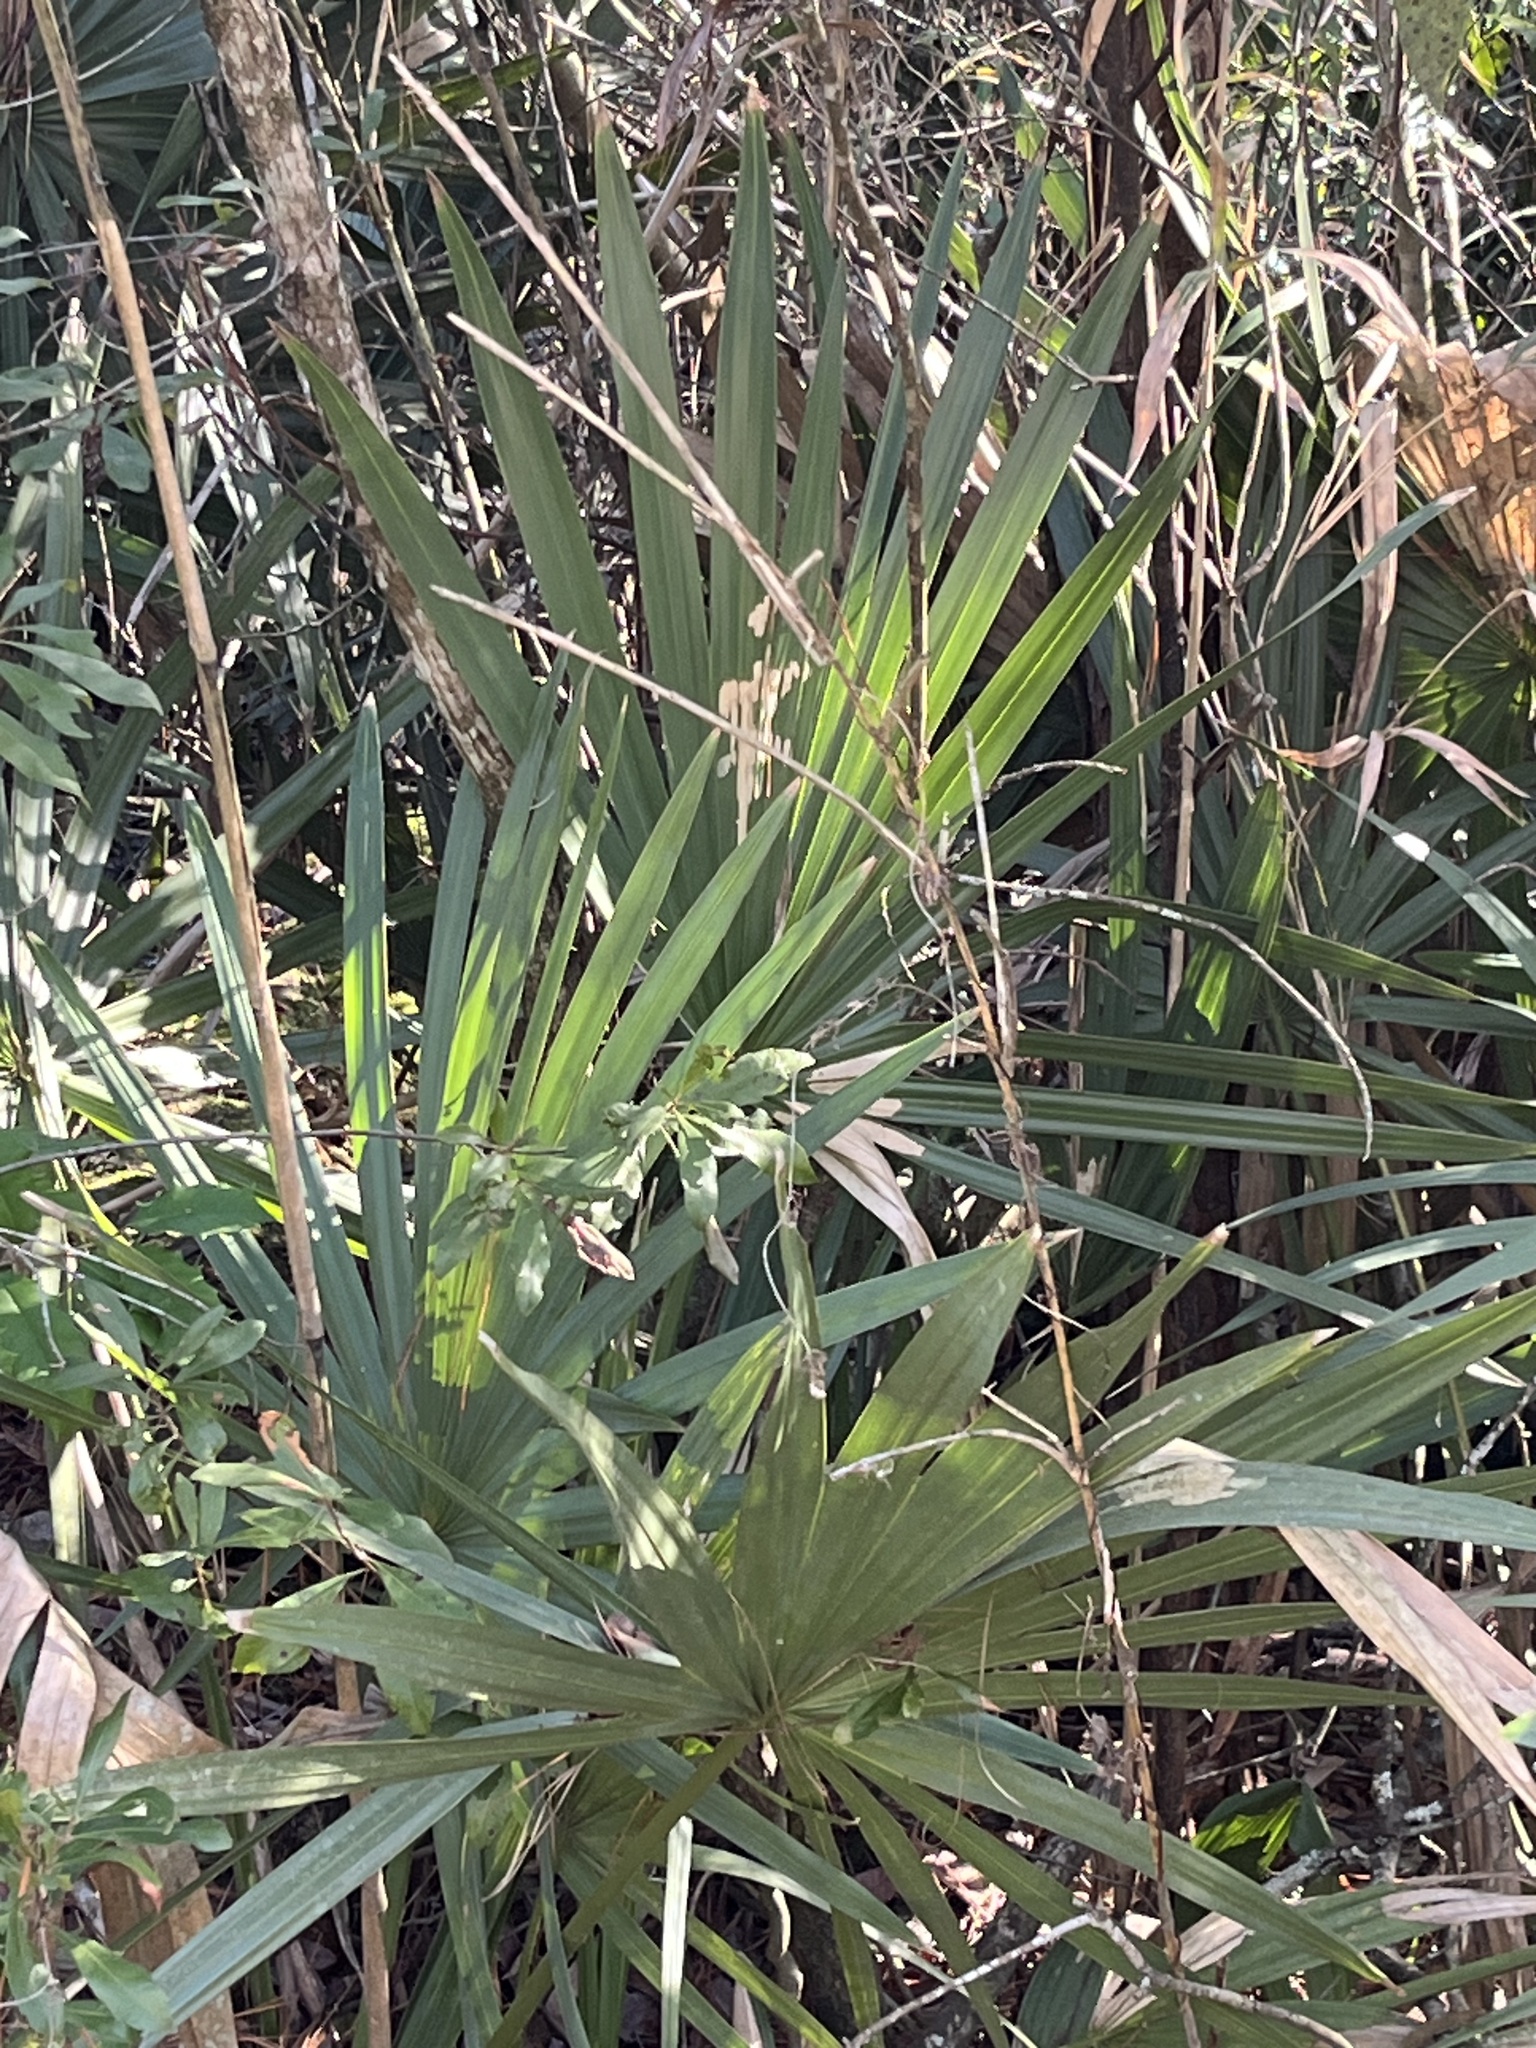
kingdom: Plantae
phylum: Tracheophyta
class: Liliopsida
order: Arecales
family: Arecaceae
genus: Sabal
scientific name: Sabal minor
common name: Dwarf palmetto
